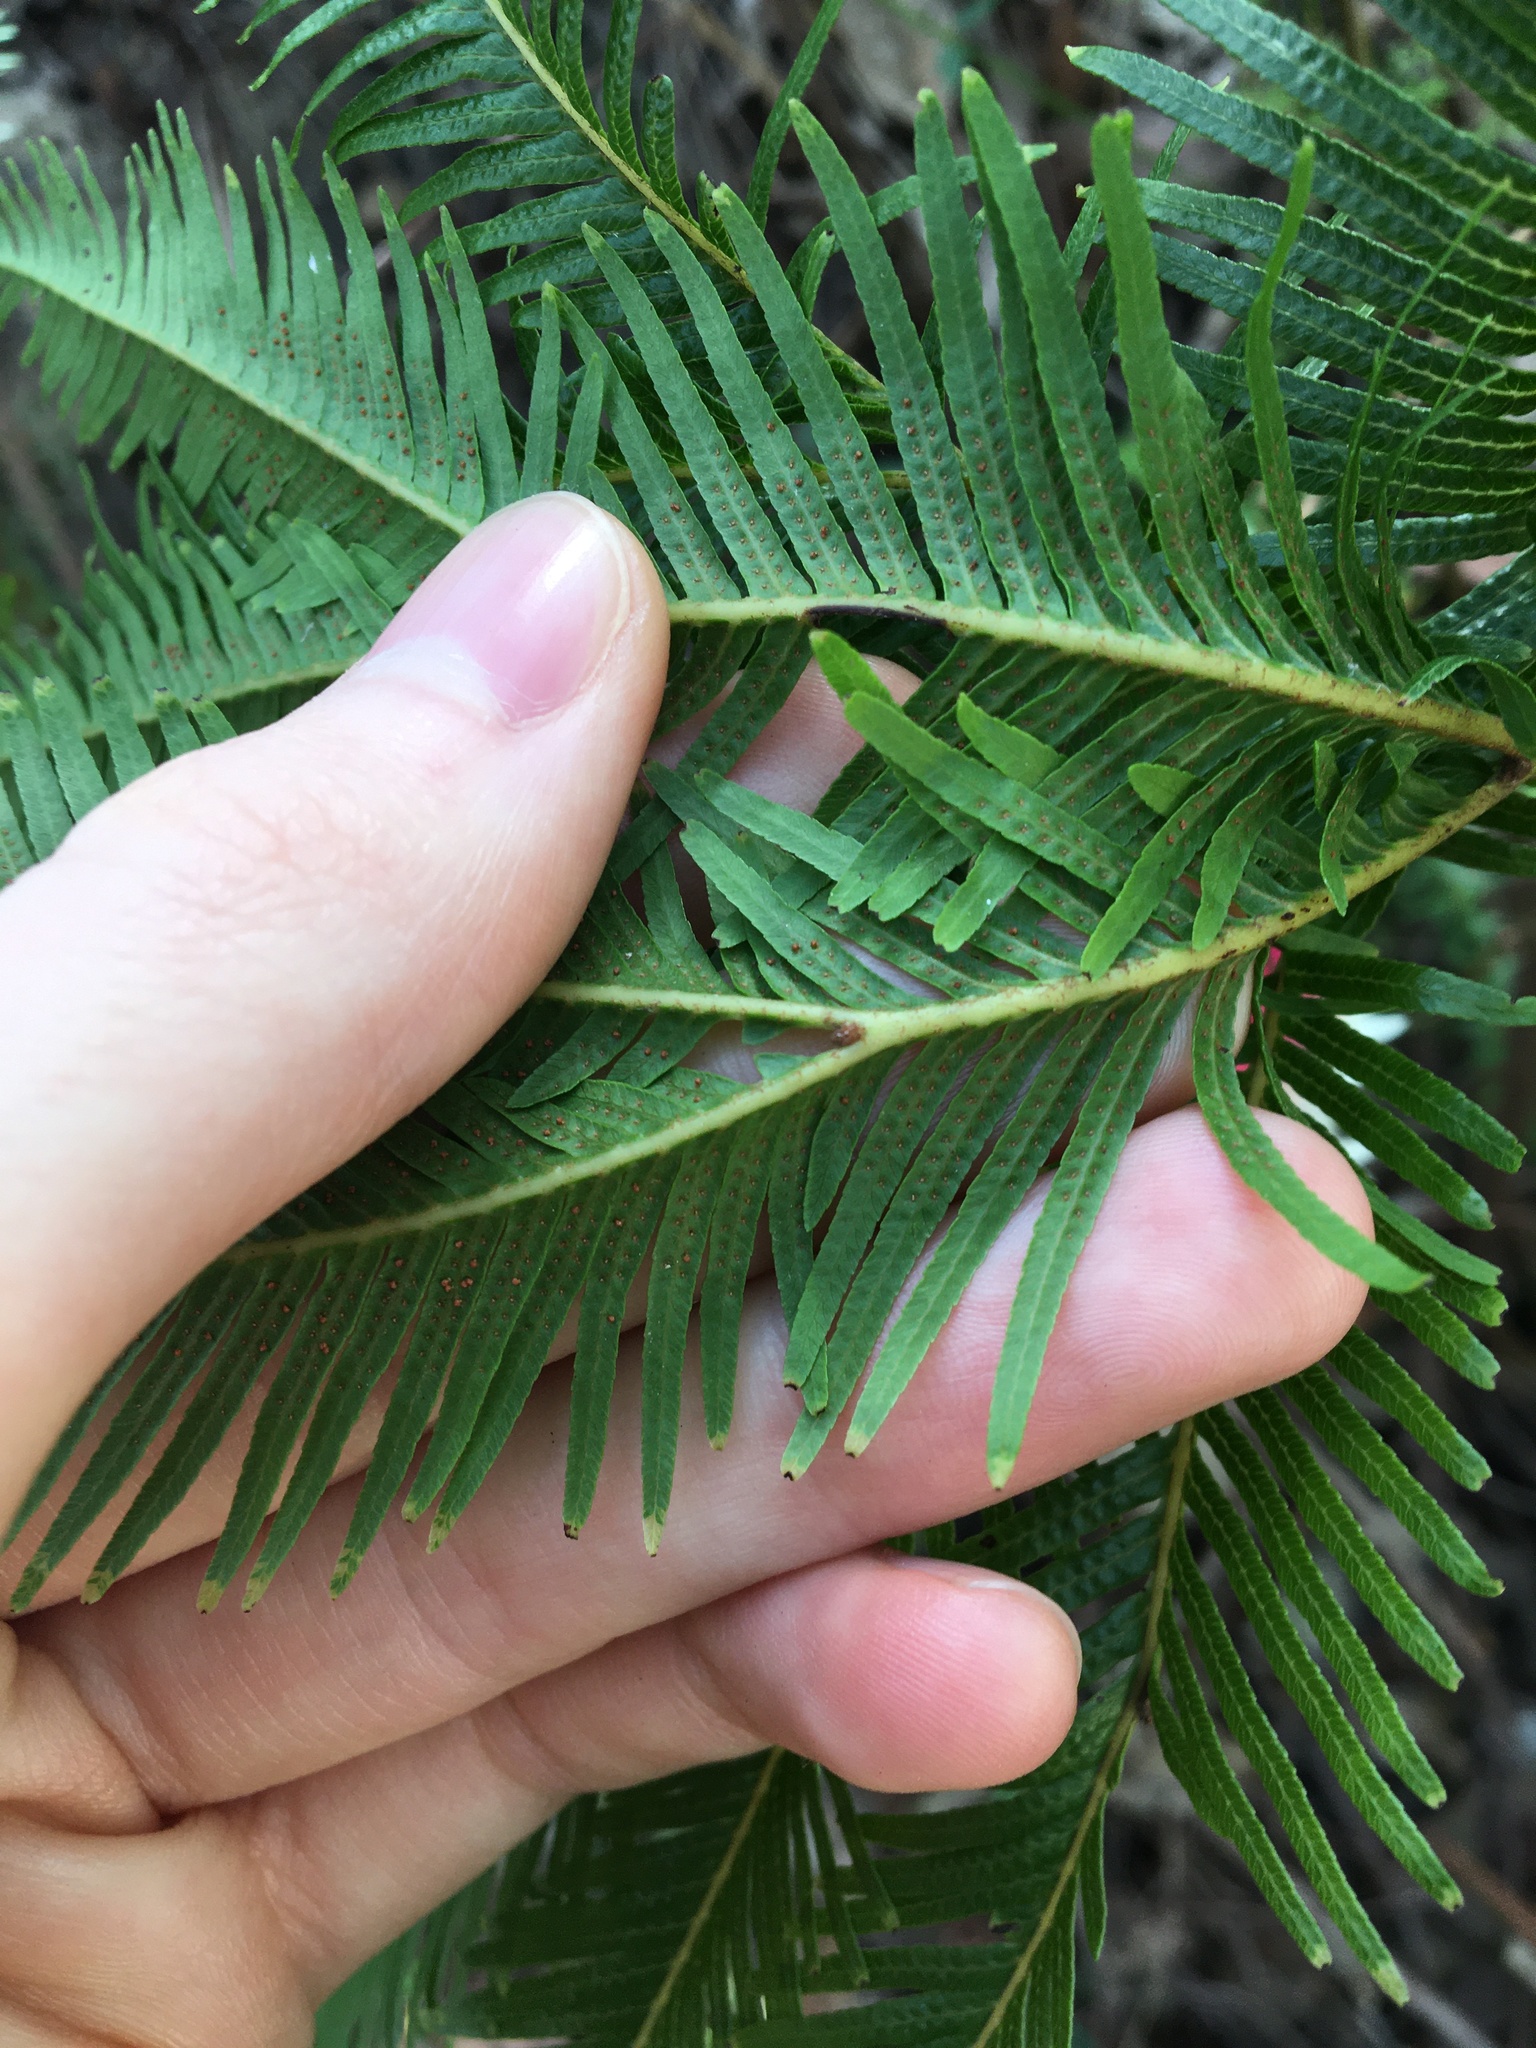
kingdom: Plantae
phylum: Tracheophyta
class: Polypodiopsida
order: Gleicheniales
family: Gleicheniaceae
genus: Sticherus
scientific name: Sticherus flabellatus
